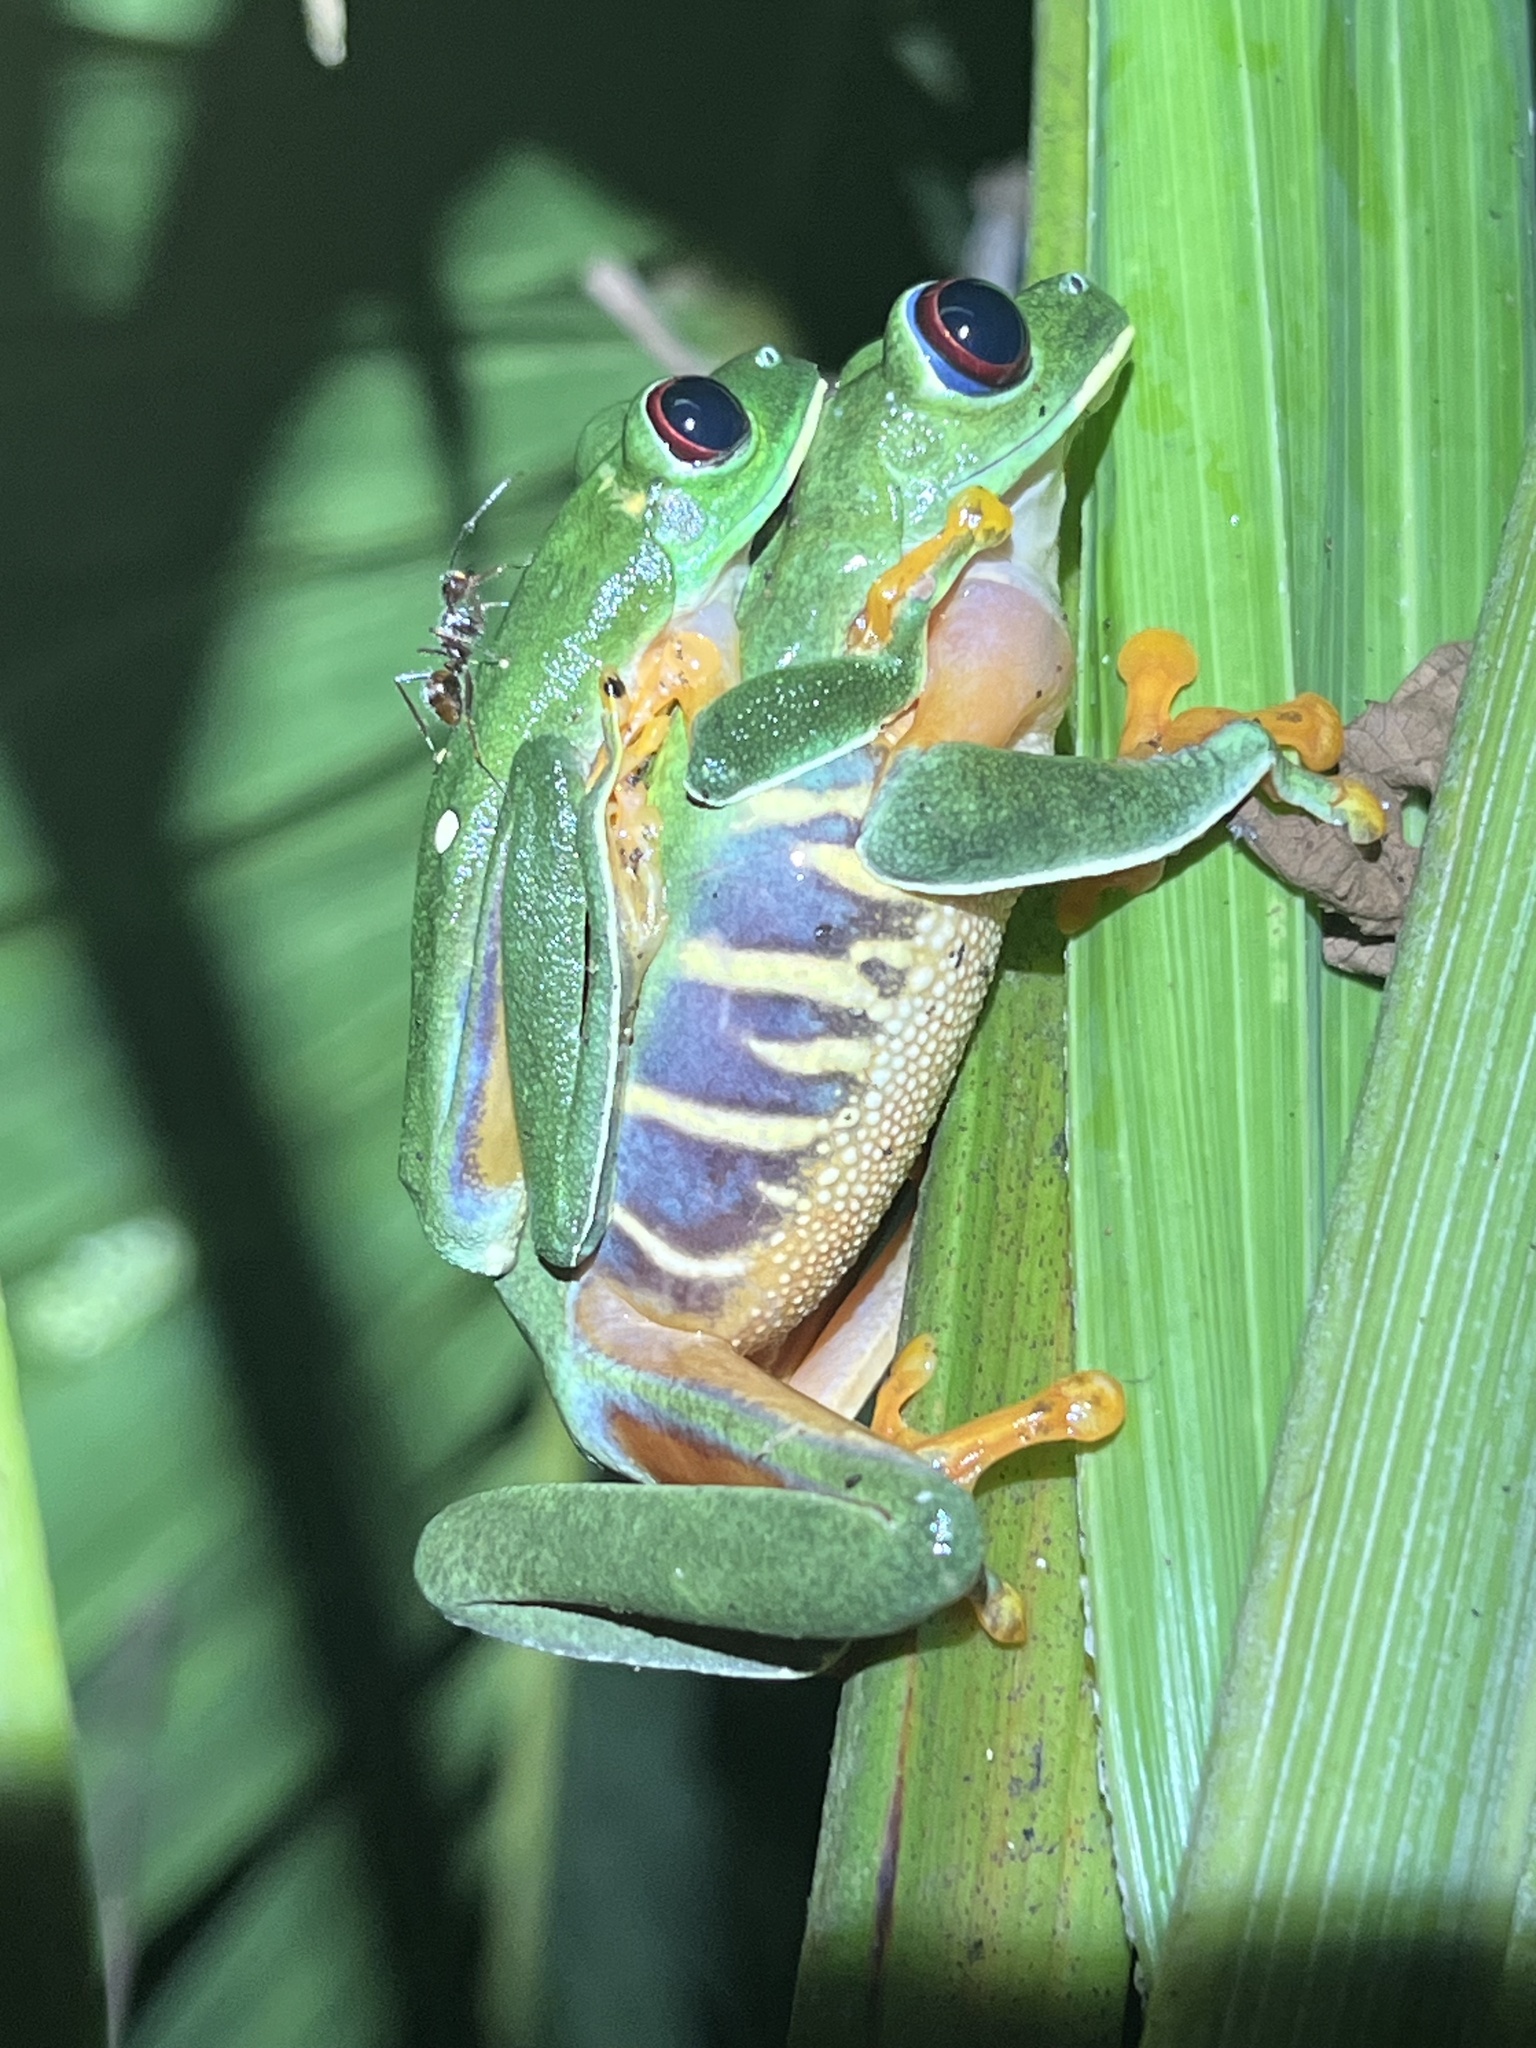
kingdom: Animalia
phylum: Chordata
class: Amphibia
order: Anura
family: Phyllomedusidae
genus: Agalychnis
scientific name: Agalychnis callidryas
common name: Red-eyed treefrog
